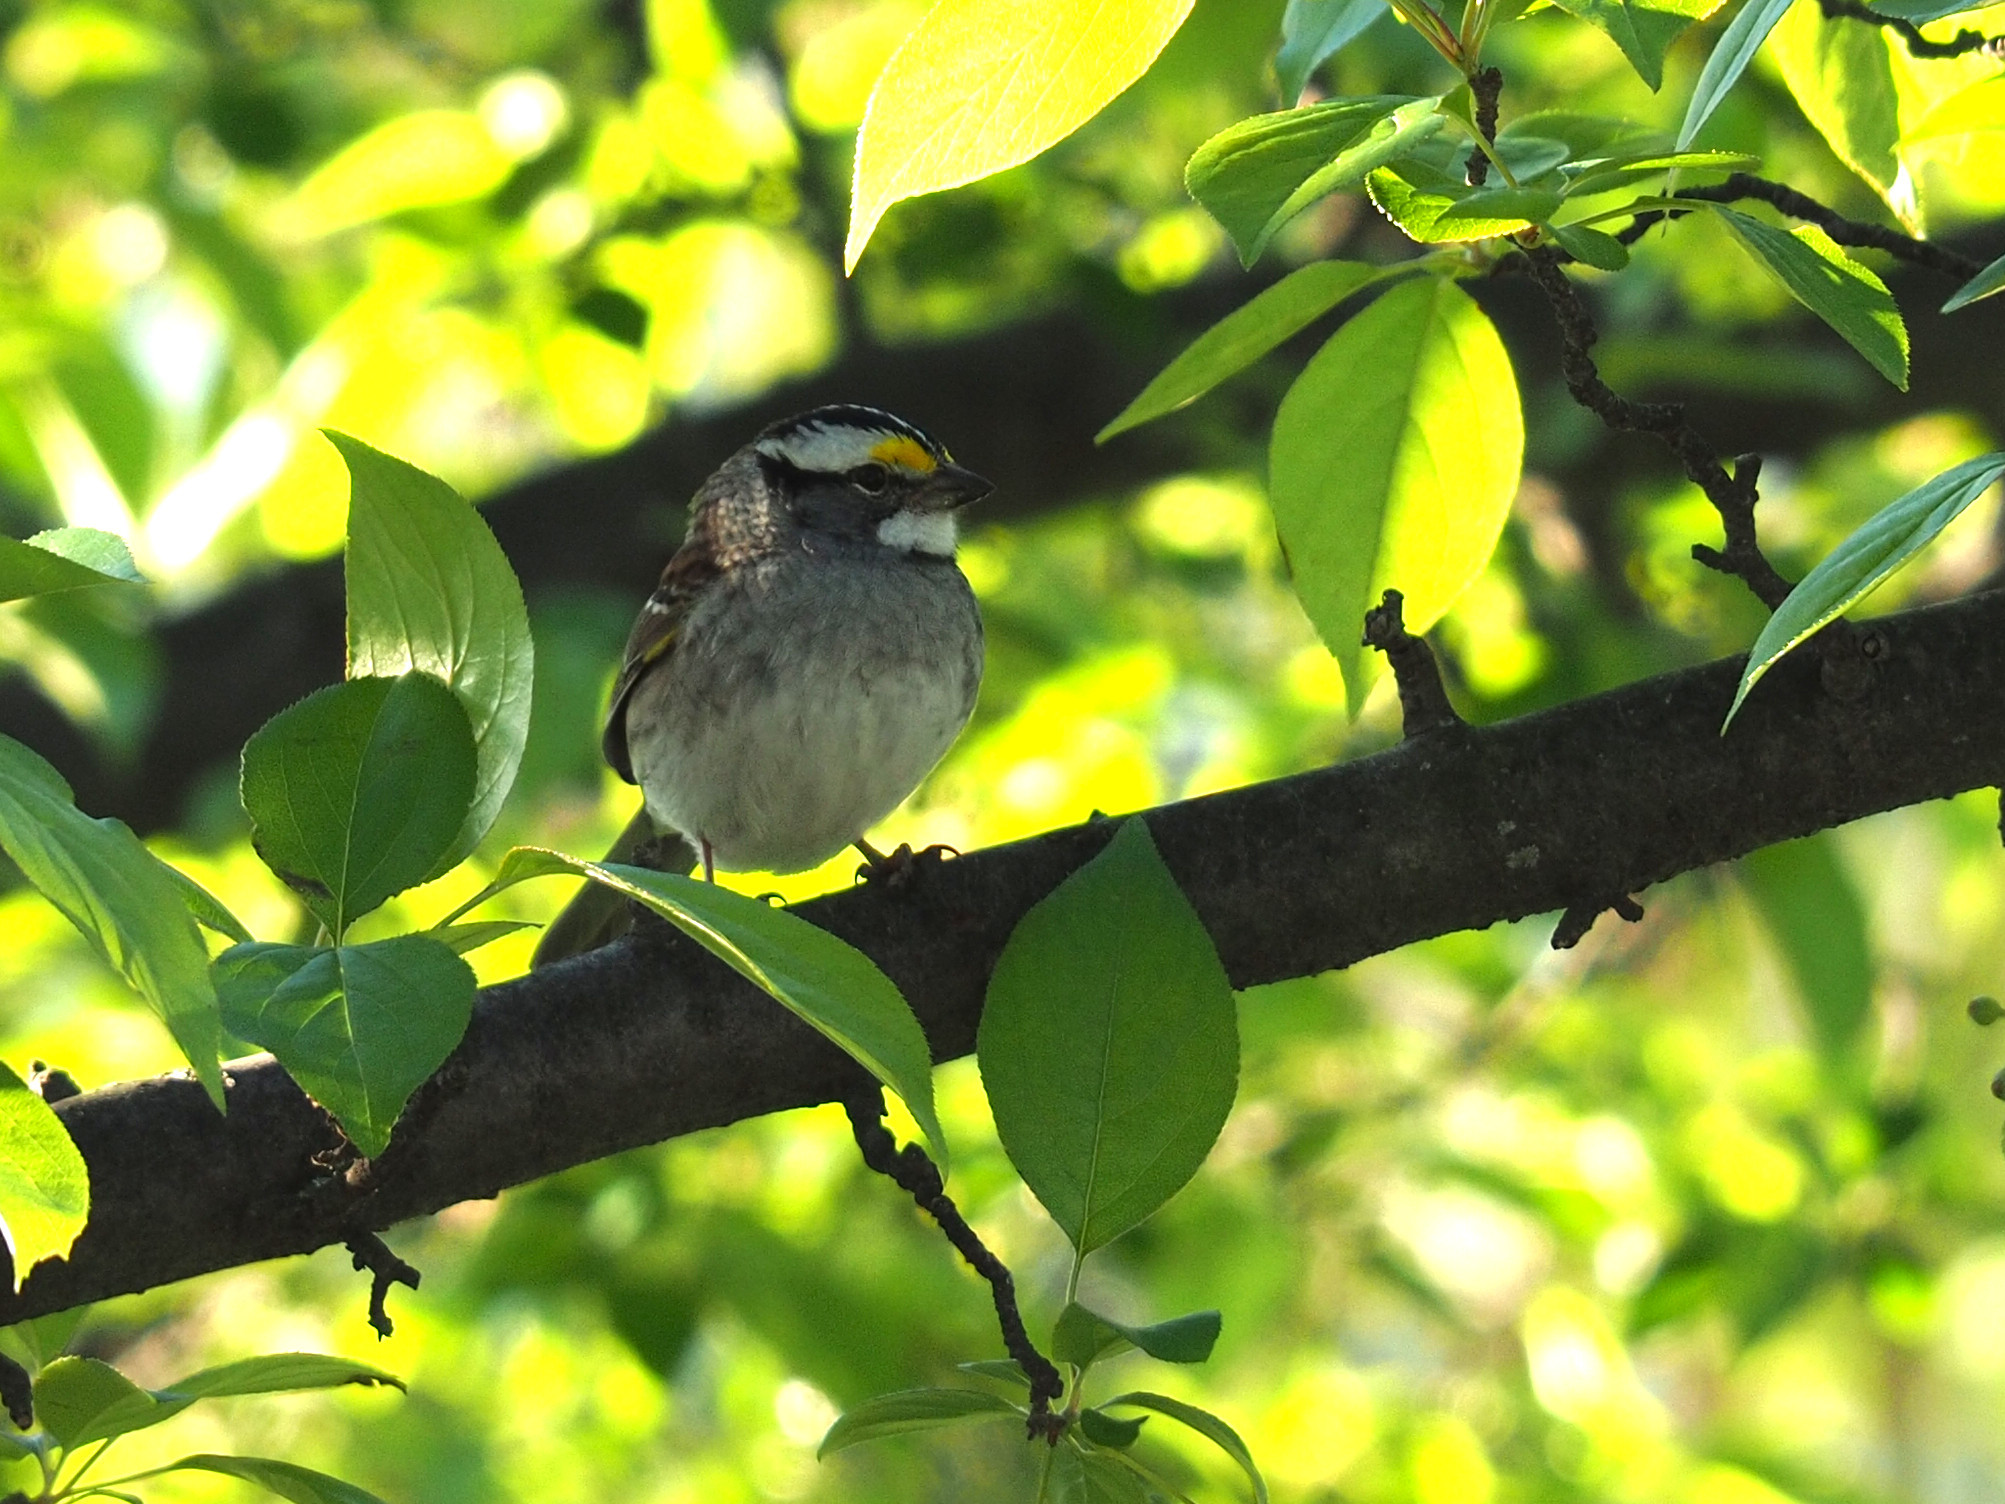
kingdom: Animalia
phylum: Chordata
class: Aves
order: Passeriformes
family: Passerellidae
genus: Zonotrichia
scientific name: Zonotrichia albicollis
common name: White-throated sparrow
